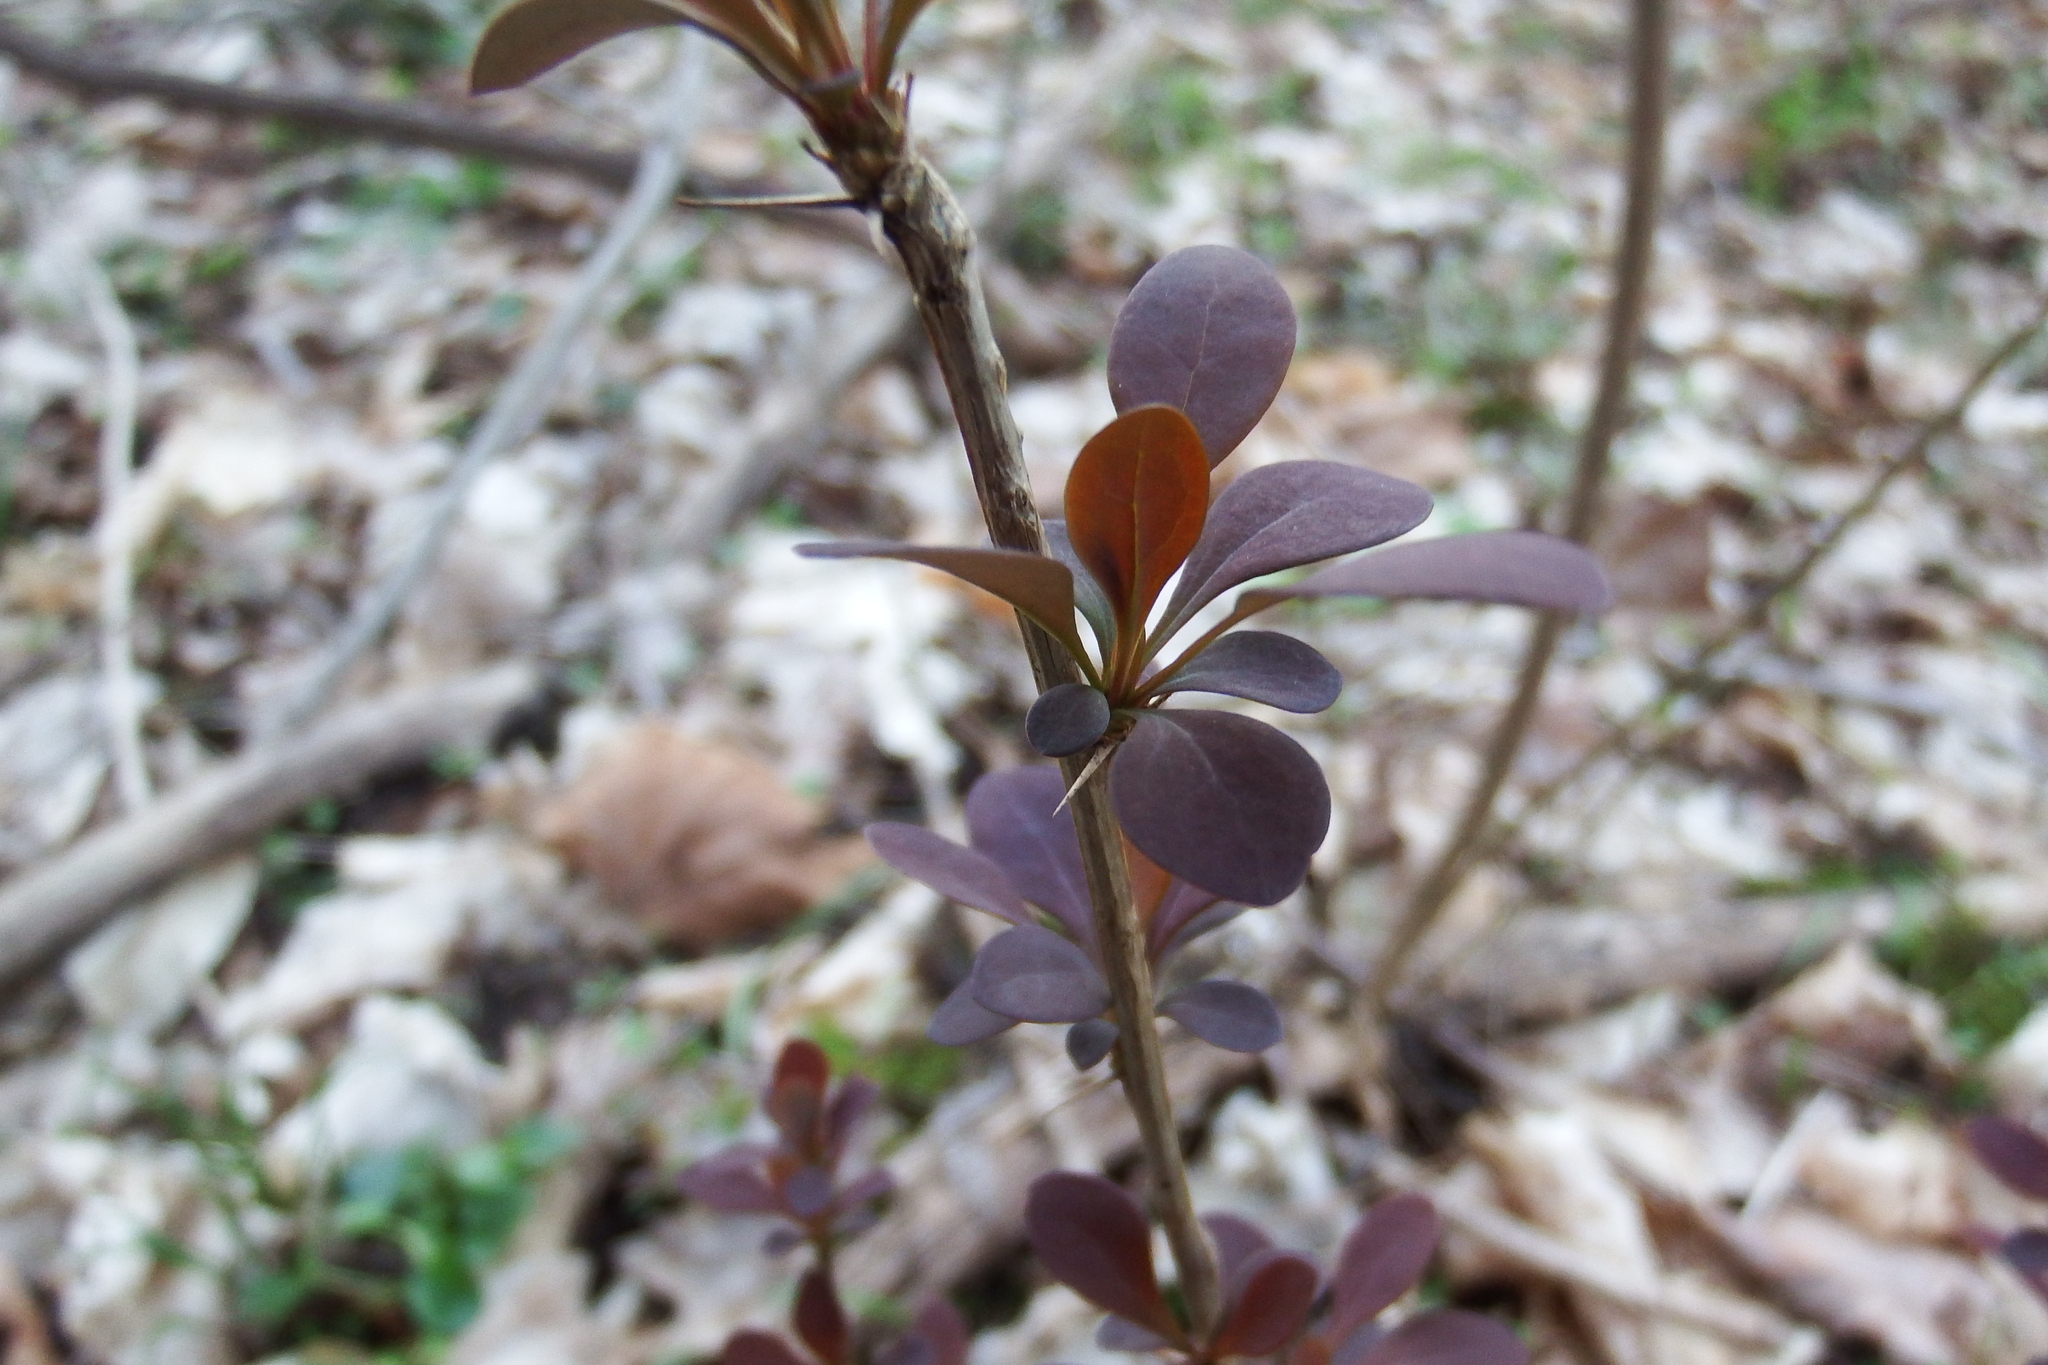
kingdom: Plantae
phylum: Tracheophyta
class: Magnoliopsida
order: Ranunculales
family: Berberidaceae
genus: Berberis
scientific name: Berberis thunbergii
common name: Japanese barberry
